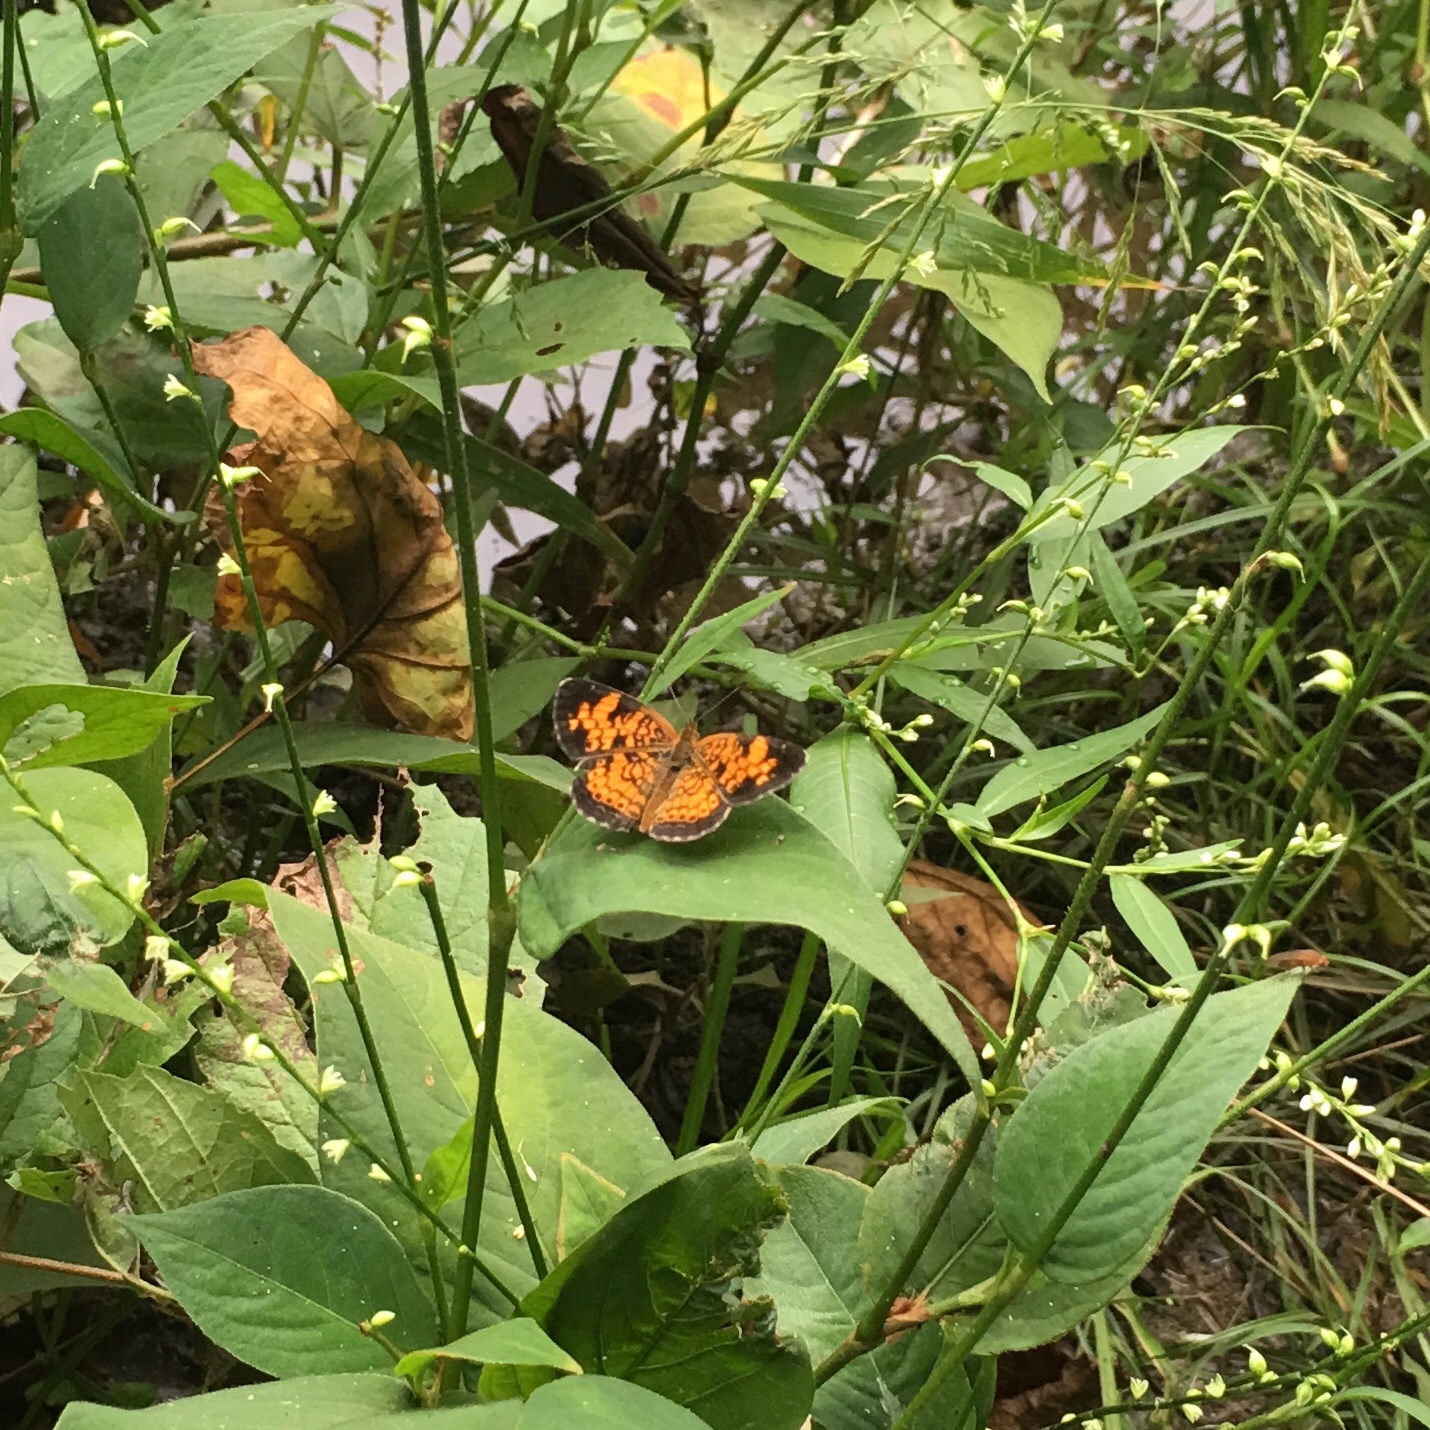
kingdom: Animalia
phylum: Arthropoda
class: Insecta
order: Lepidoptera
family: Nymphalidae
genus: Phyciodes
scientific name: Phyciodes tharos
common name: Pearl crescent
